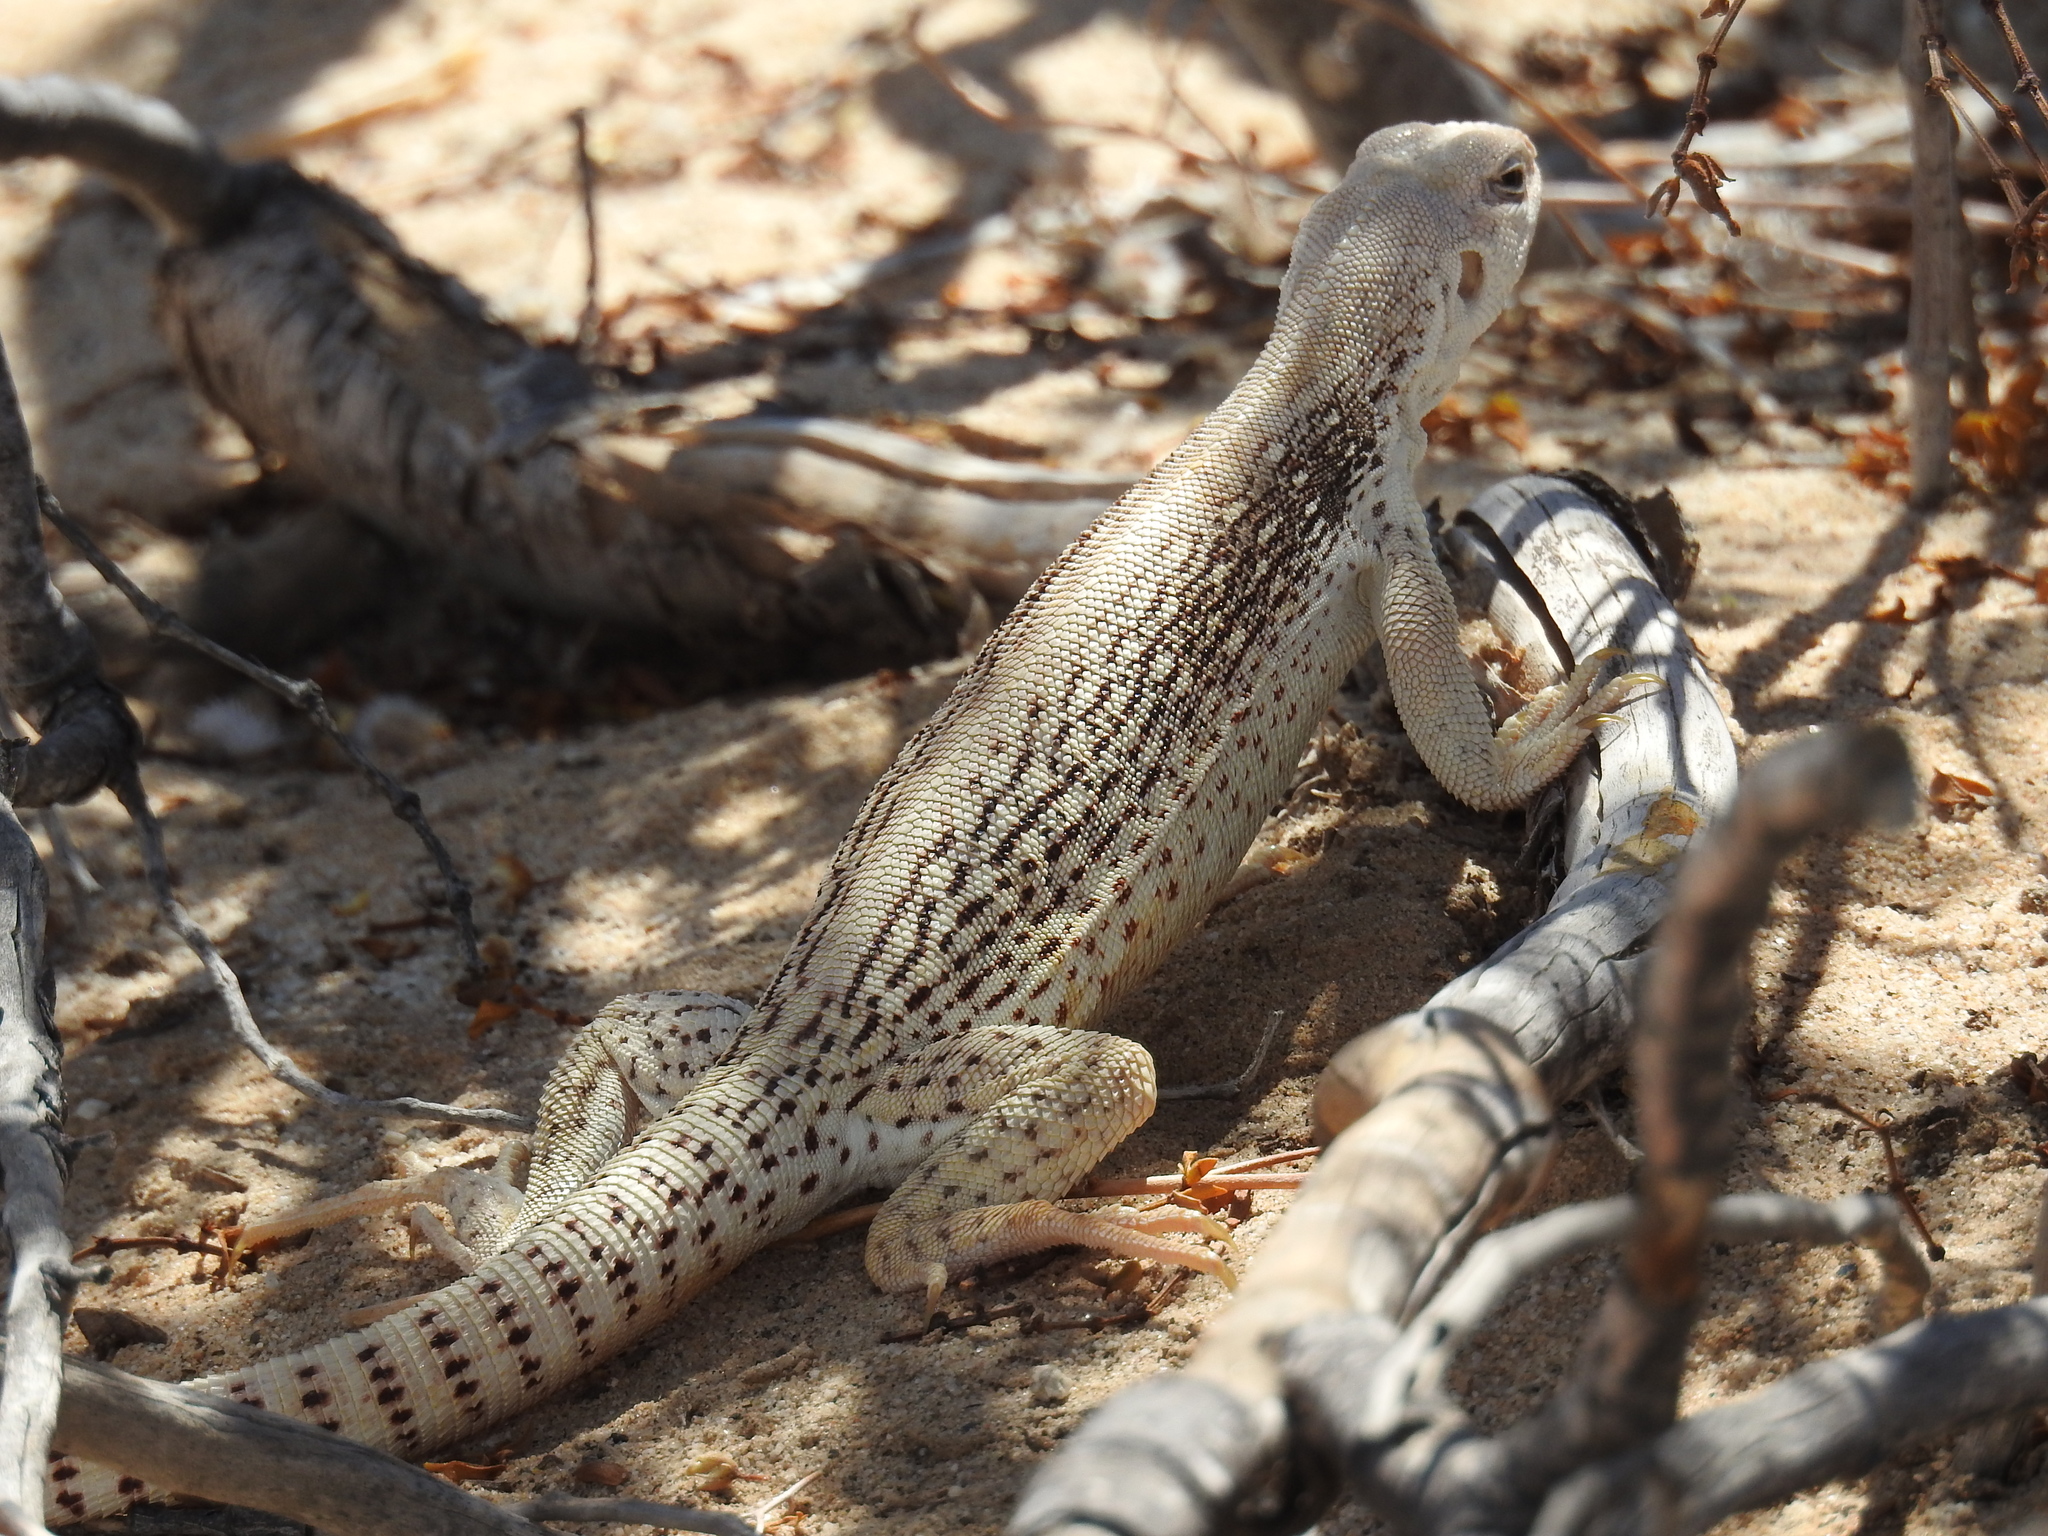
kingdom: Animalia
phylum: Chordata
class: Squamata
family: Iguanidae
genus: Dipsosaurus
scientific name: Dipsosaurus dorsalis
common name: Desert iguana
